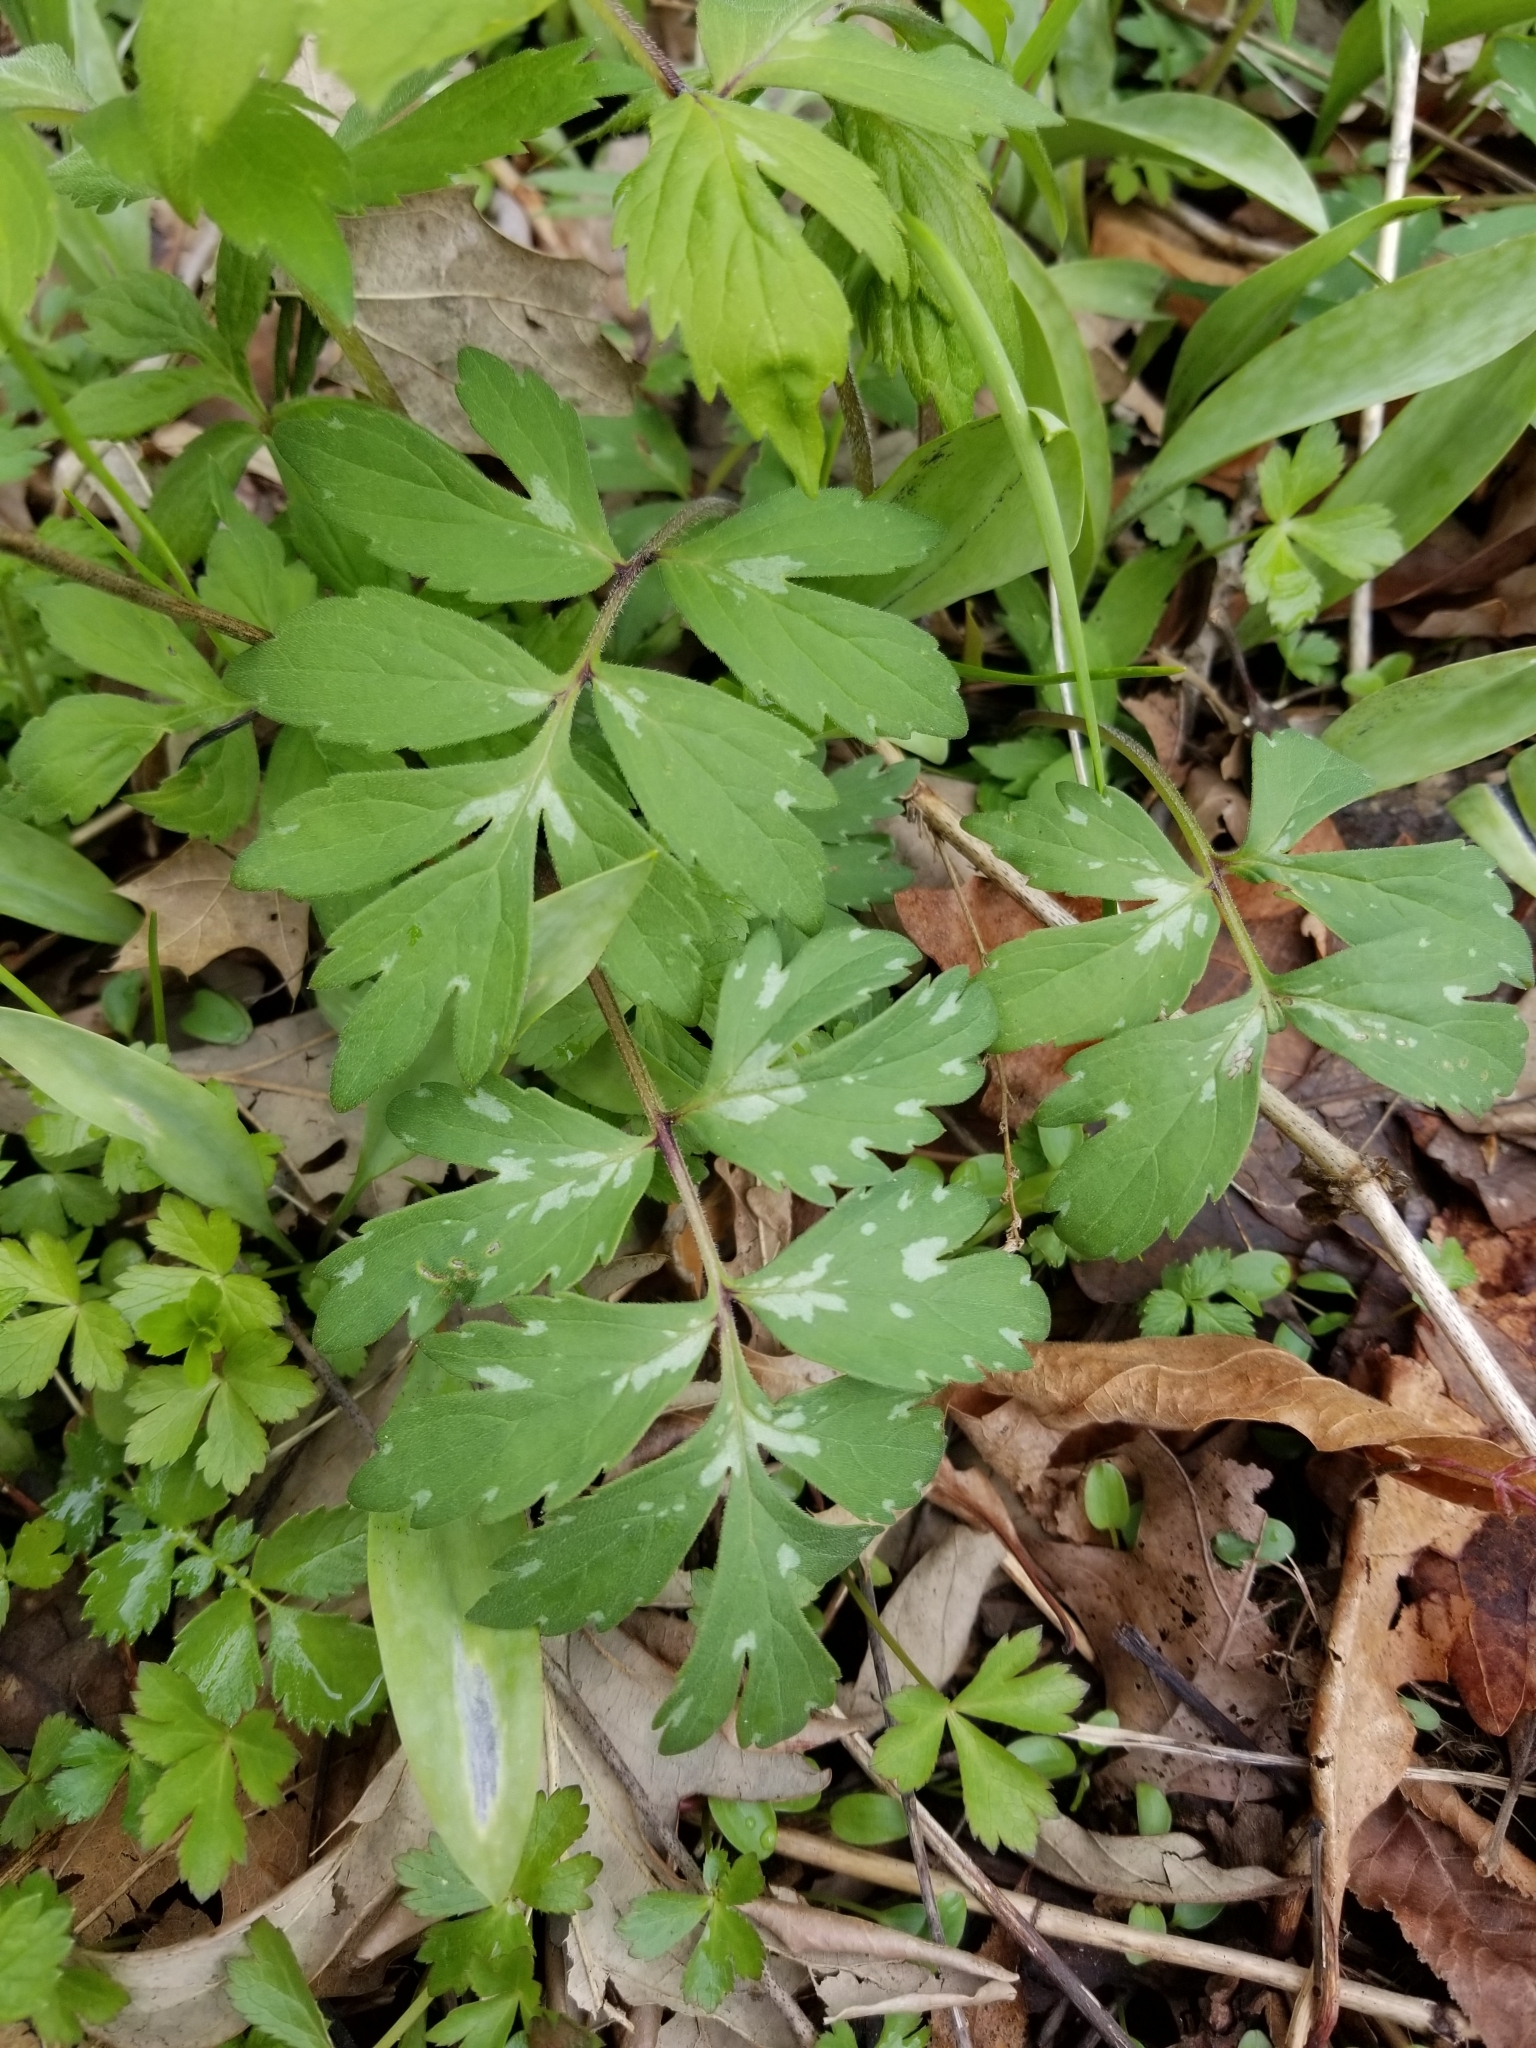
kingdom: Plantae
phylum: Tracheophyta
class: Magnoliopsida
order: Boraginales
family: Hydrophyllaceae
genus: Hydrophyllum
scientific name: Hydrophyllum virginianum
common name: Virginia waterleaf
